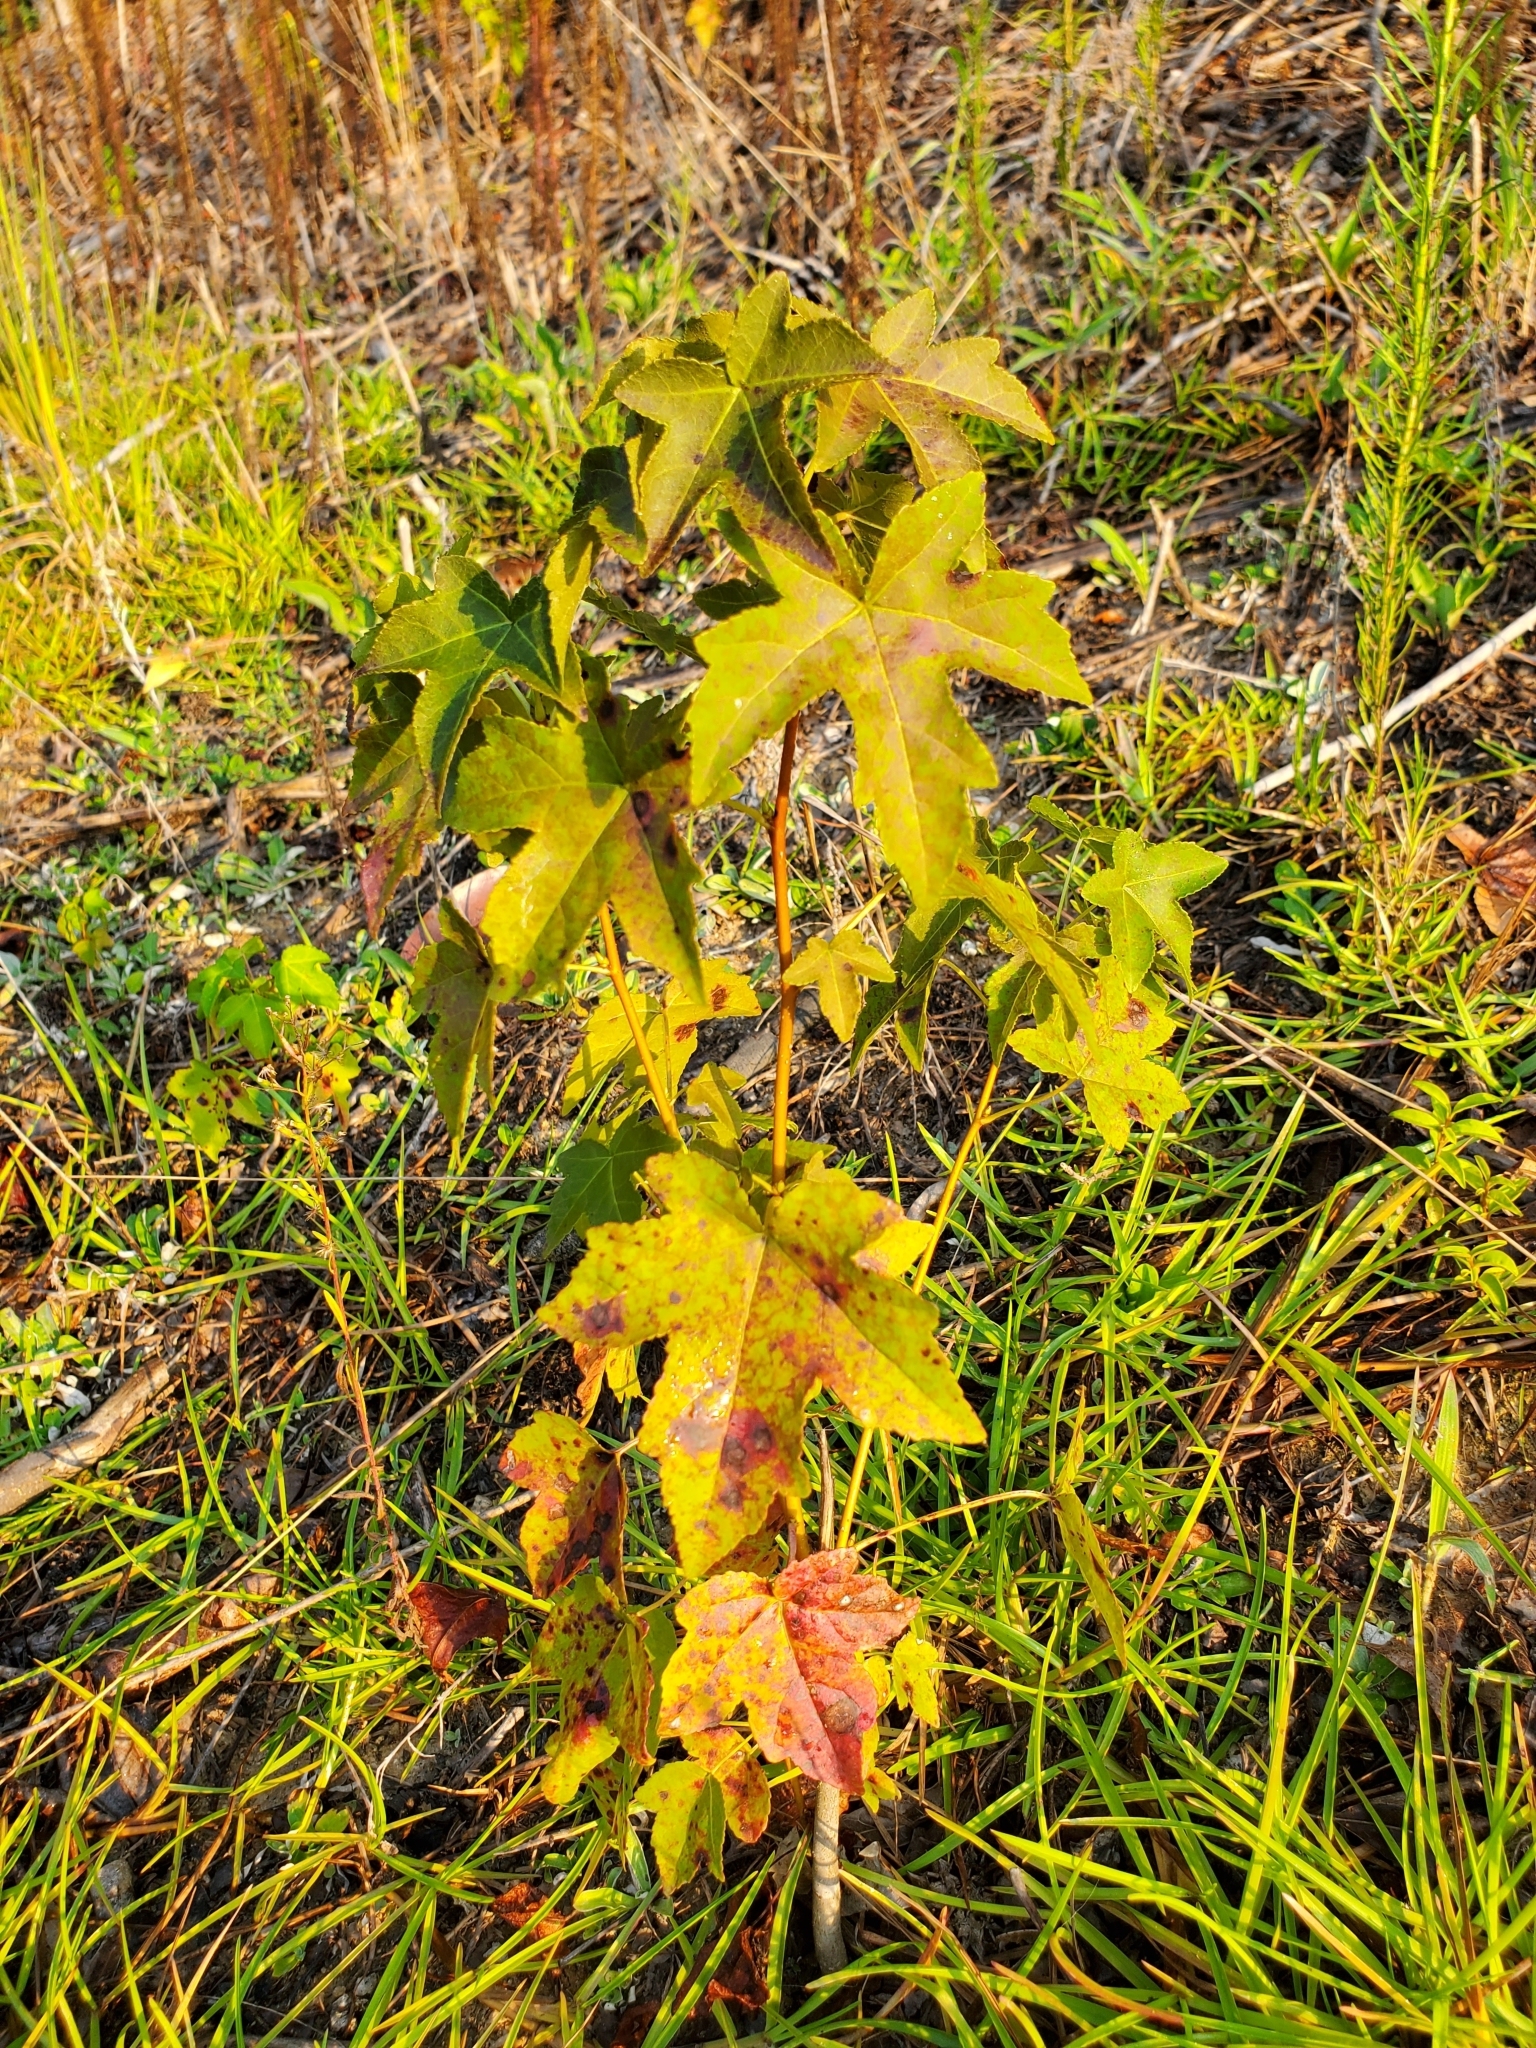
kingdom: Plantae
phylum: Tracheophyta
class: Magnoliopsida
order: Saxifragales
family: Altingiaceae
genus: Liquidambar
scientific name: Liquidambar styraciflua
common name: Sweet gum
